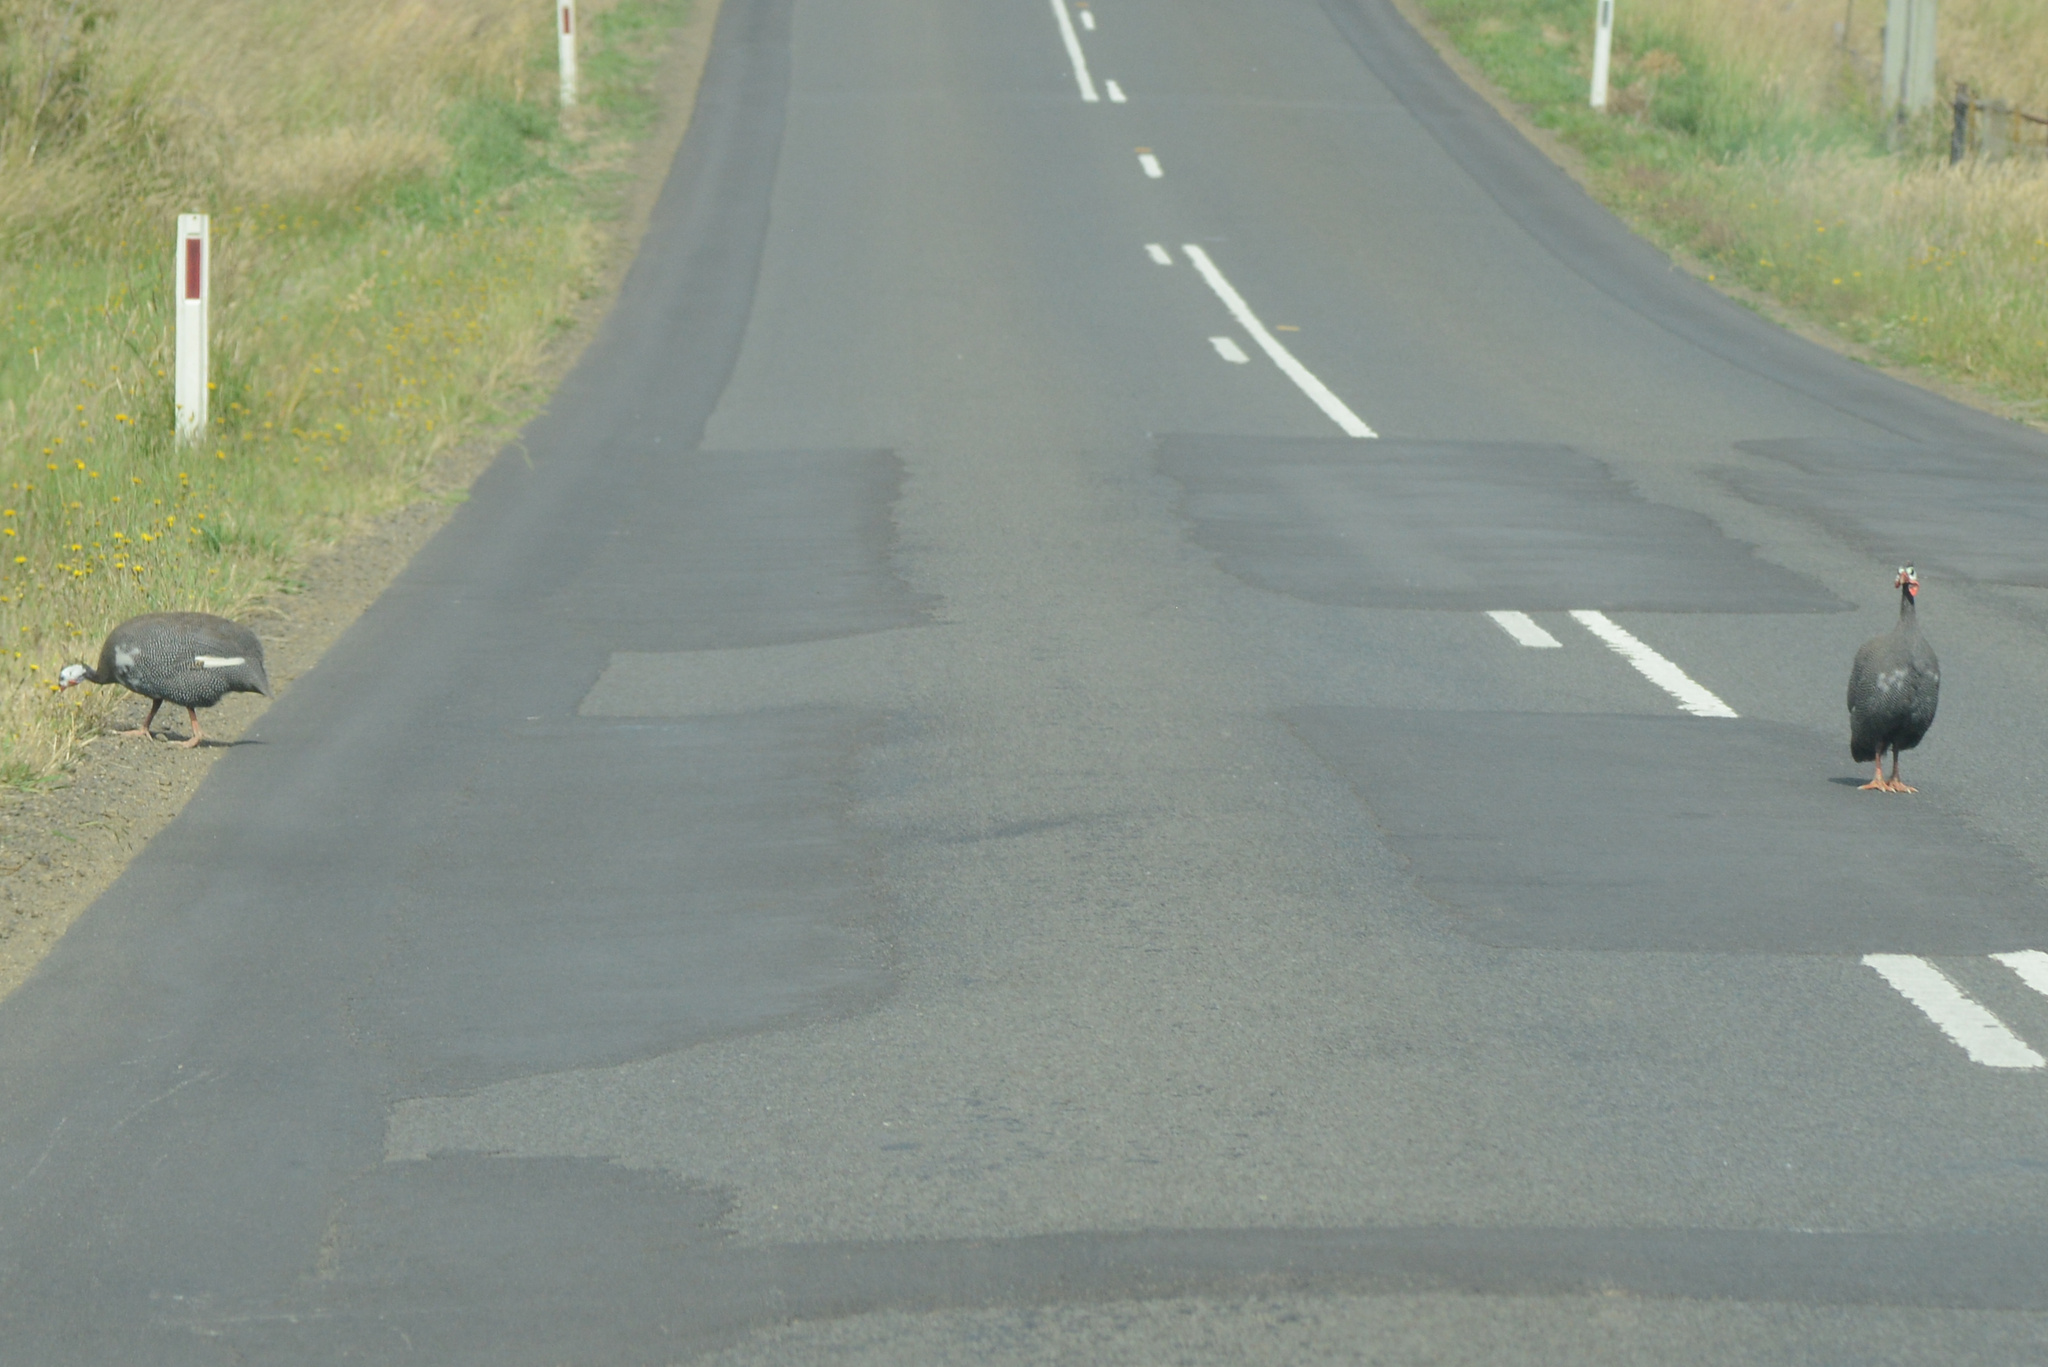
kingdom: Animalia
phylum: Chordata
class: Aves
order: Galliformes
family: Numididae
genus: Numida
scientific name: Numida meleagris
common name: Helmeted guineafowl
